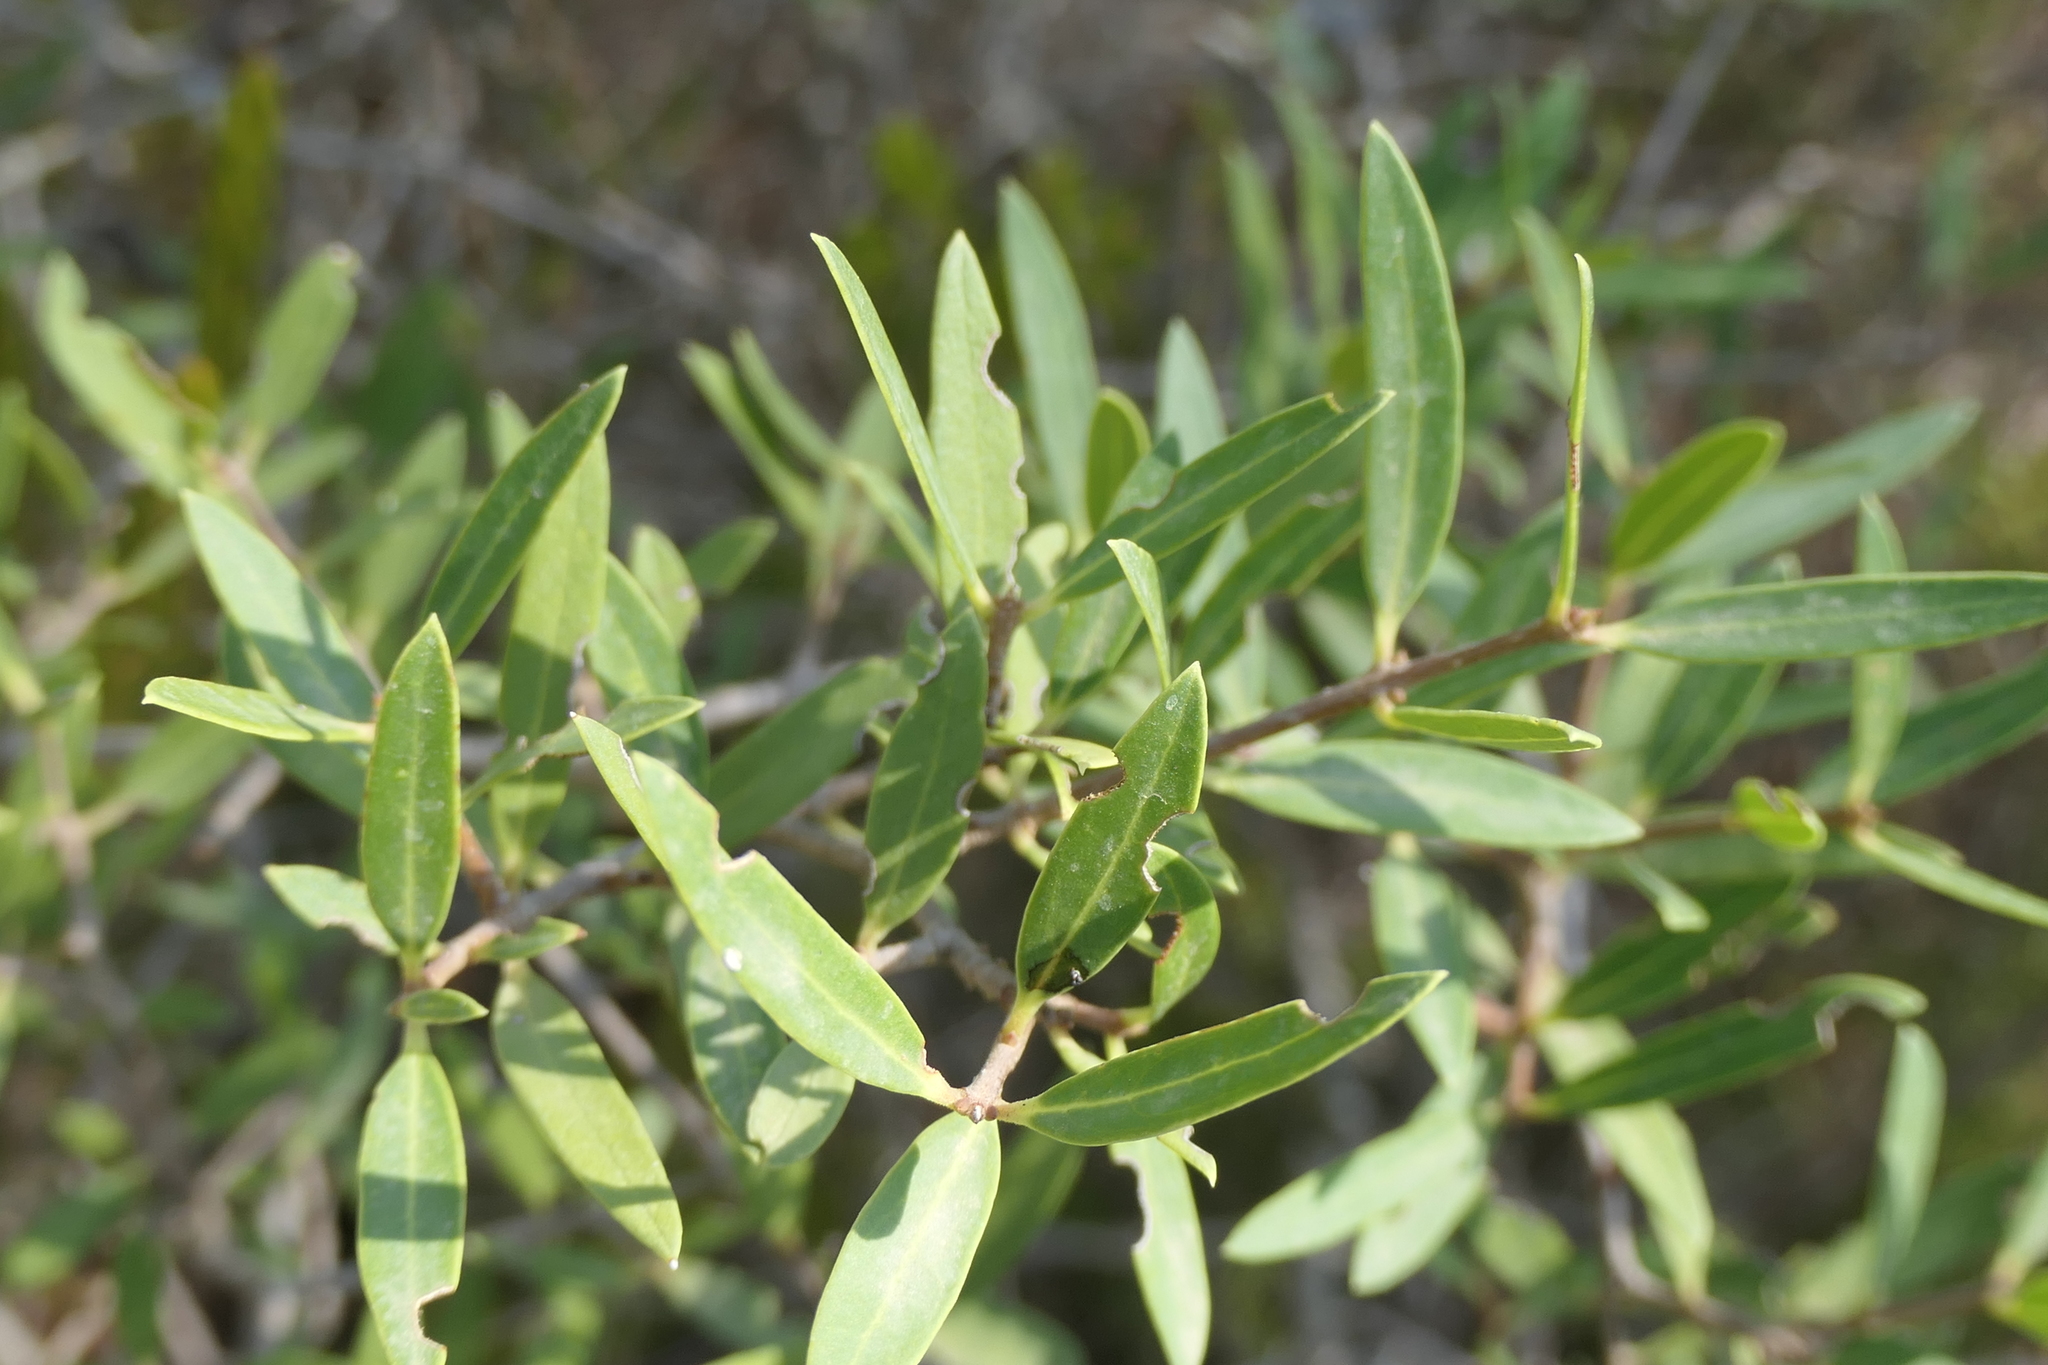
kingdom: Plantae
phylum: Tracheophyta
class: Magnoliopsida
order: Lamiales
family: Oleaceae
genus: Phillyrea
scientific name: Phillyrea angustifolia
